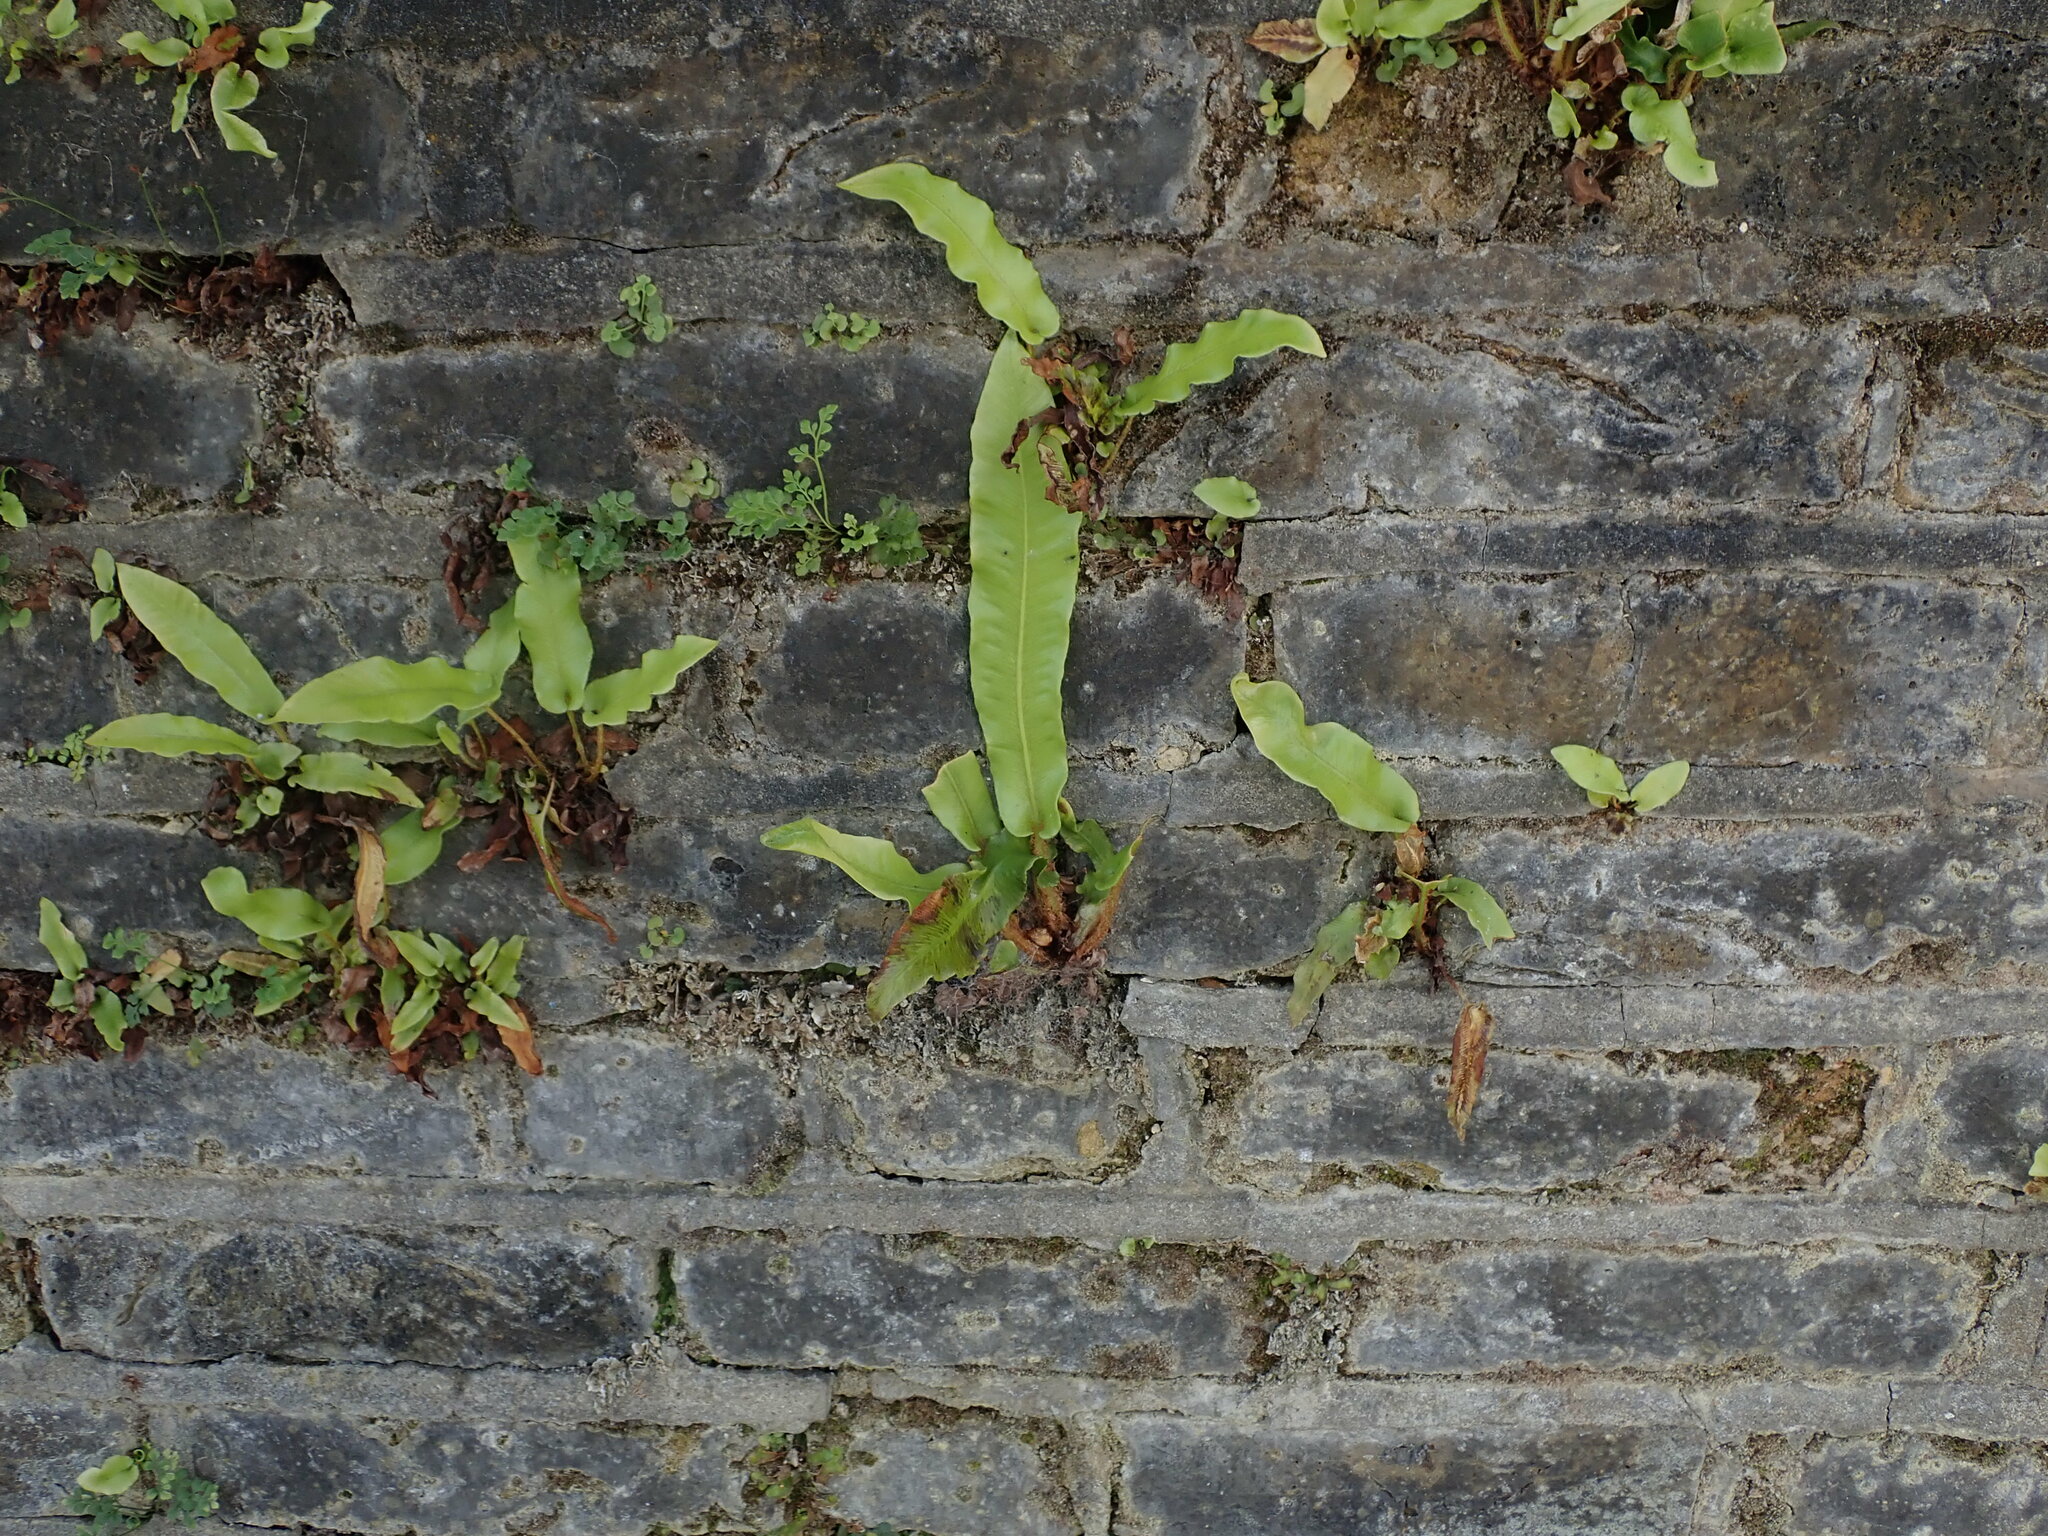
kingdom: Plantae
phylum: Tracheophyta
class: Polypodiopsida
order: Polypodiales
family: Aspleniaceae
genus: Asplenium
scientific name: Asplenium scolopendrium
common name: Hart's-tongue fern
